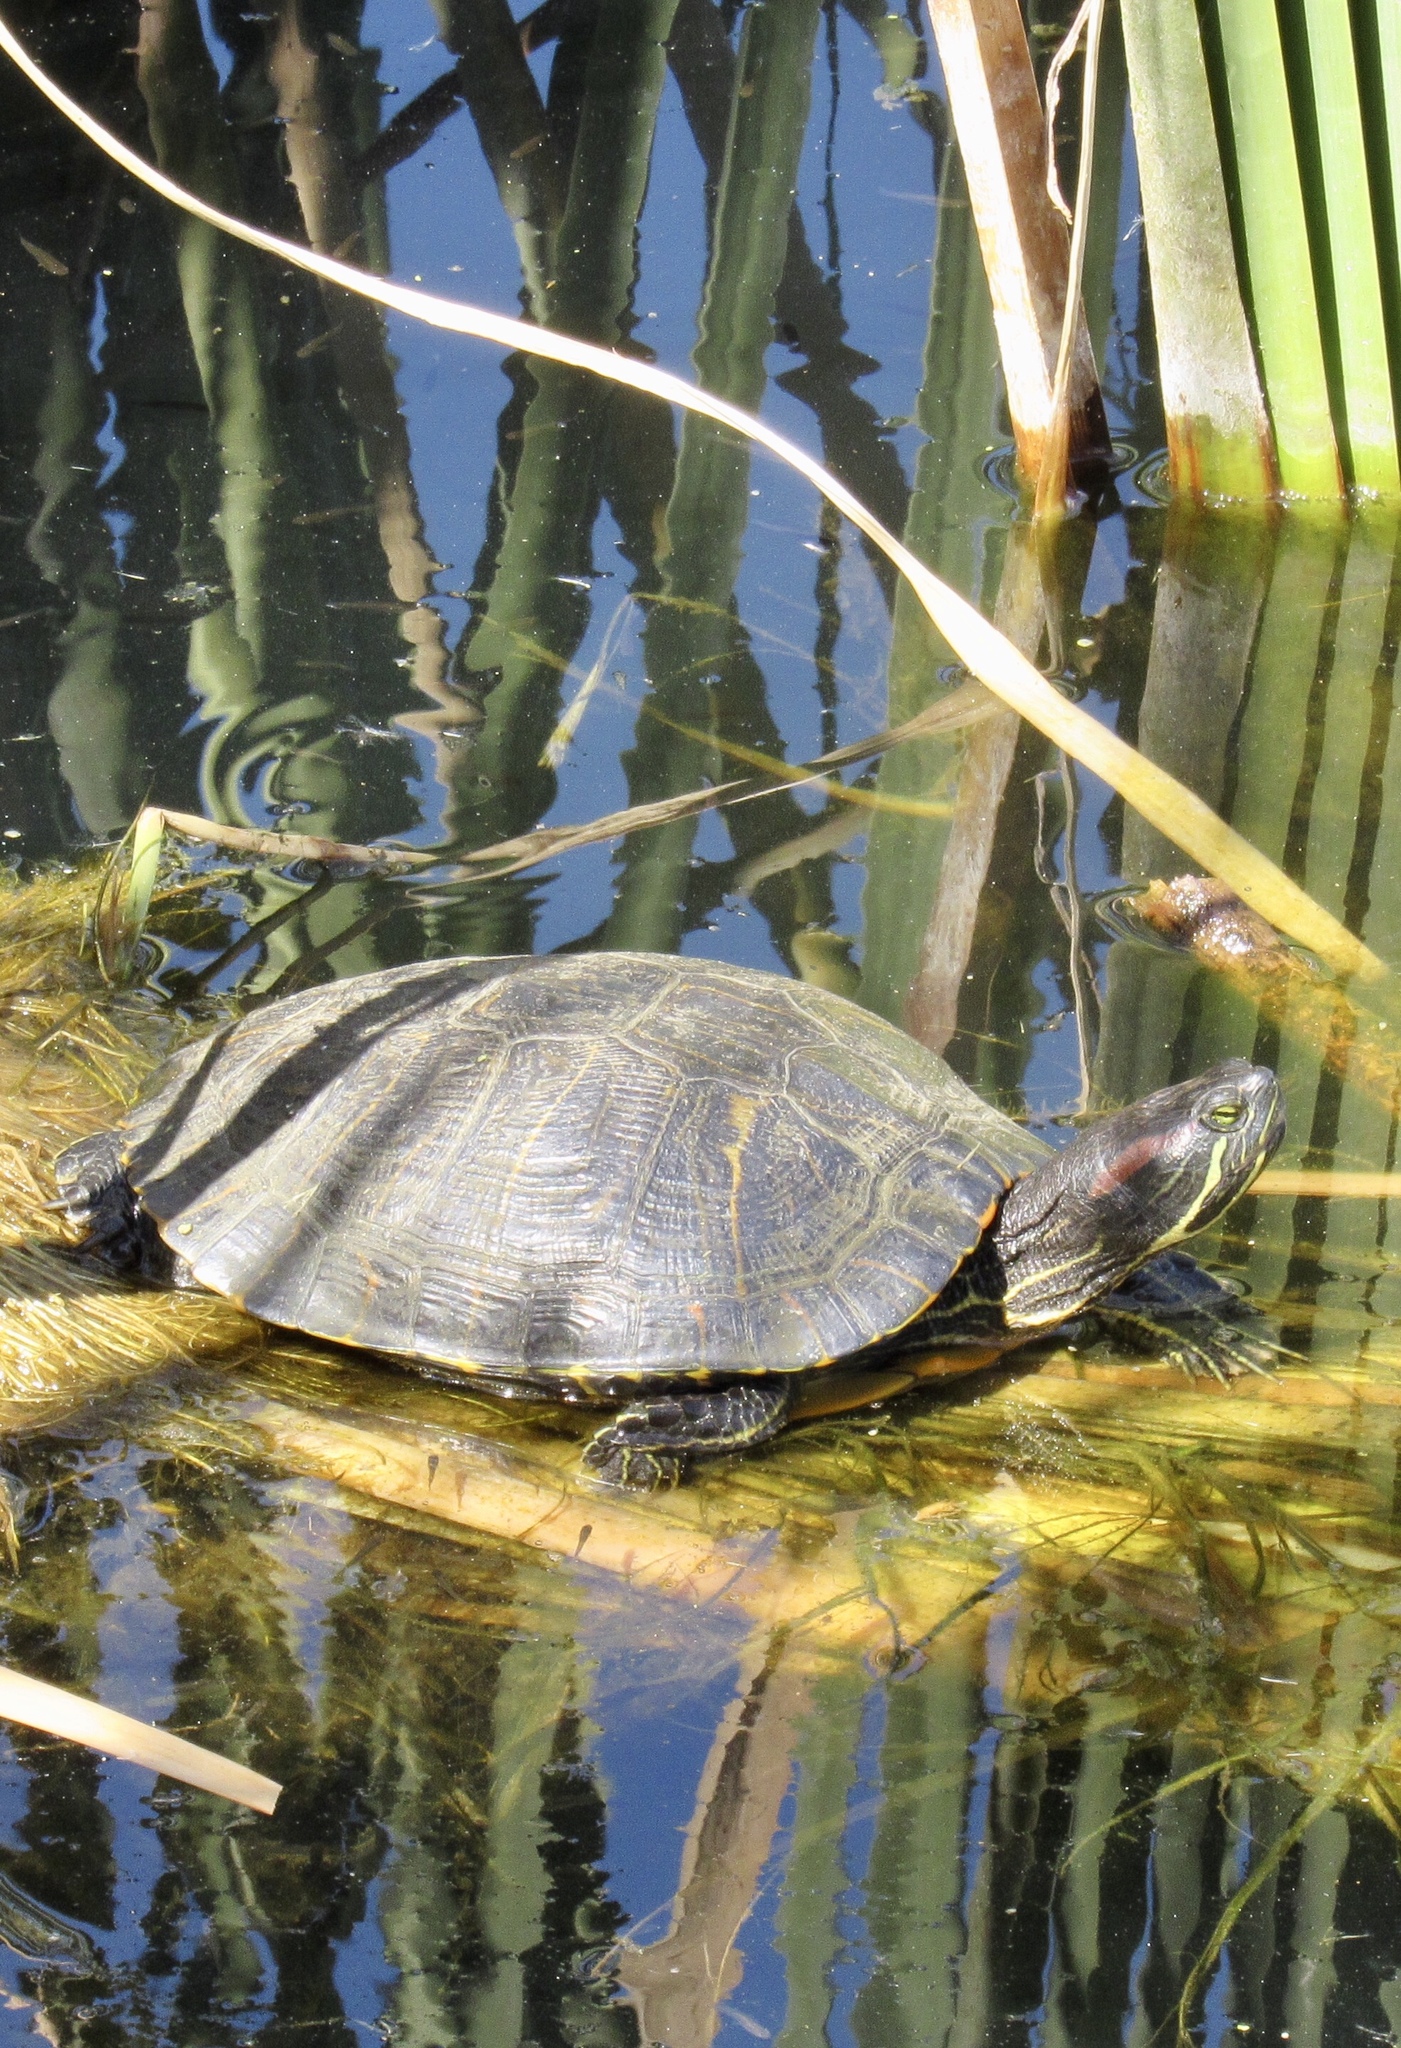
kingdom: Animalia
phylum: Chordata
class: Testudines
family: Emydidae
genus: Trachemys
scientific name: Trachemys scripta
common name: Slider
